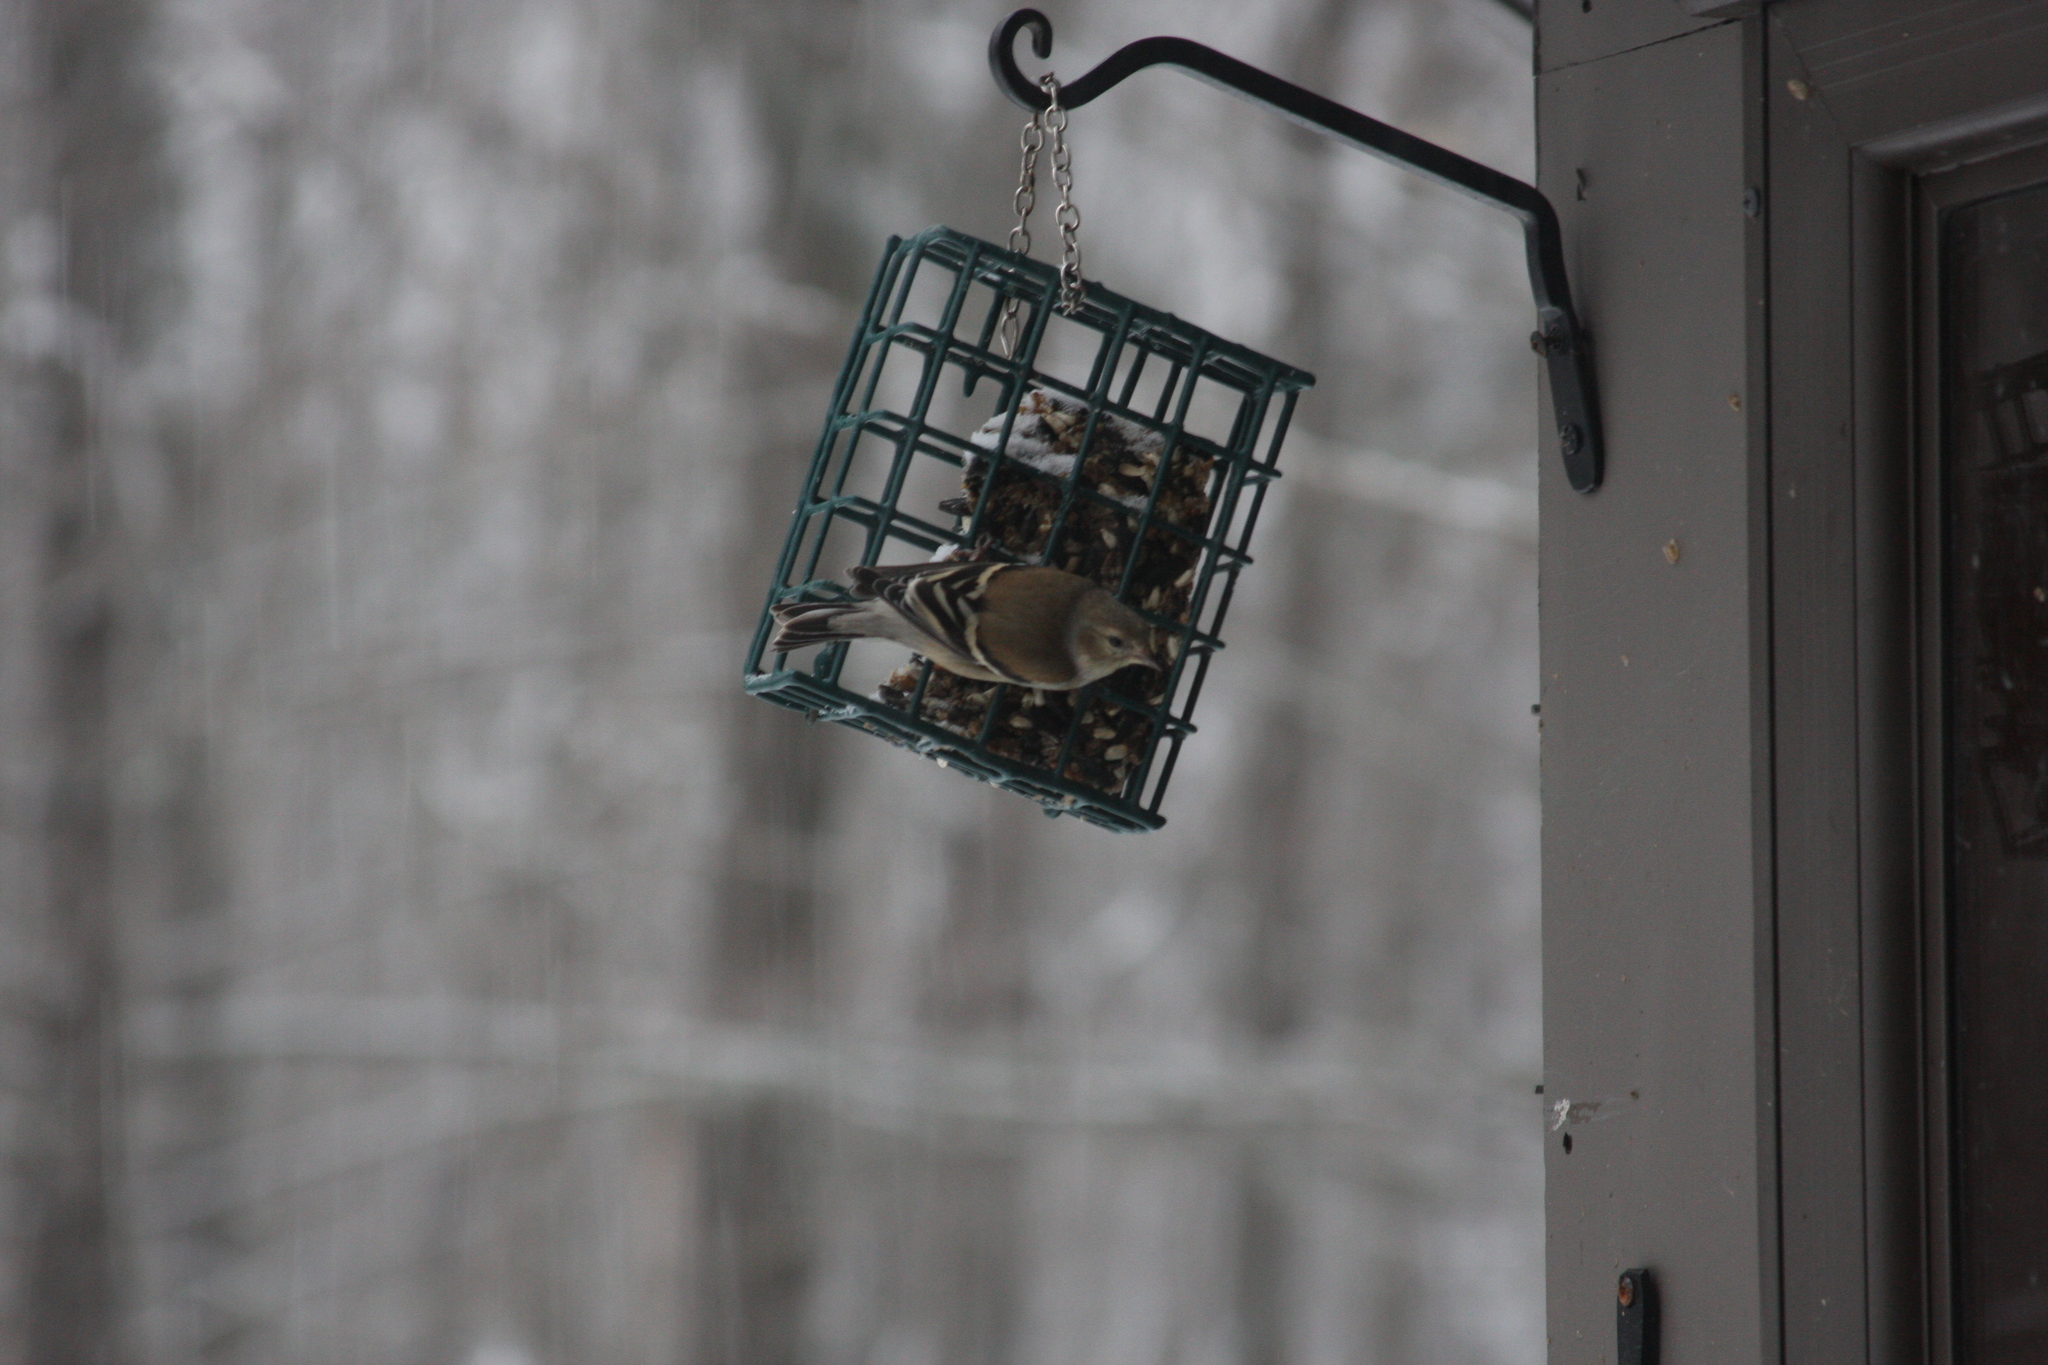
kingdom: Animalia
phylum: Chordata
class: Aves
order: Passeriformes
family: Fringillidae
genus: Spinus
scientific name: Spinus tristis
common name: American goldfinch
